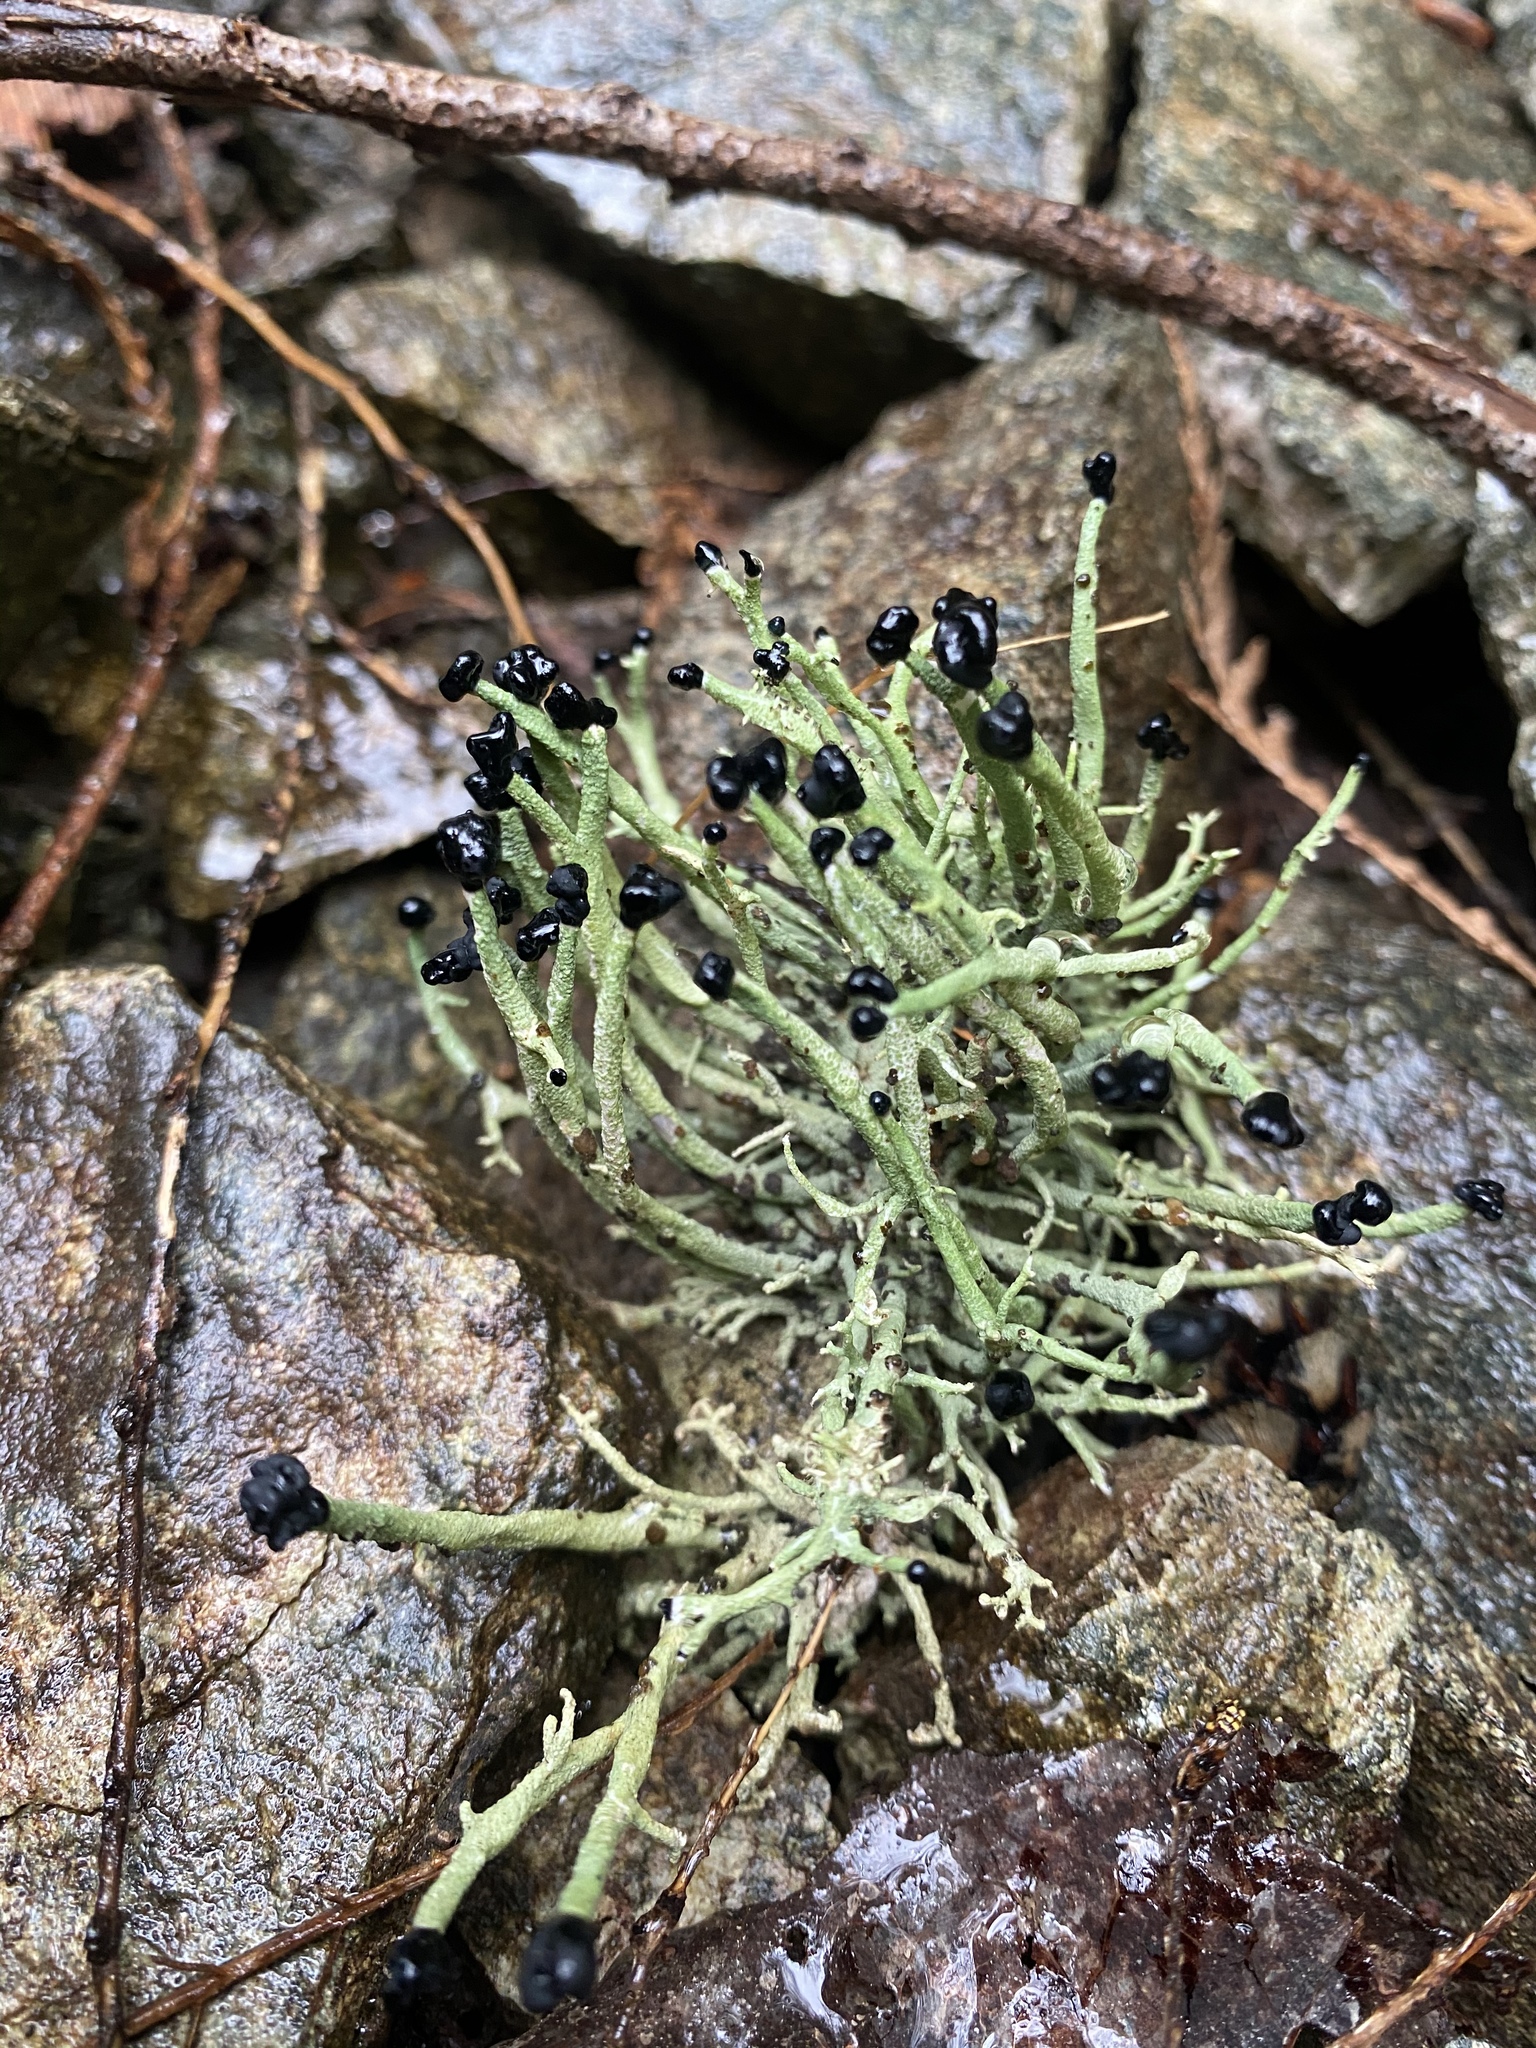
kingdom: Fungi
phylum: Ascomycota
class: Lecanoromycetes
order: Lecanorales
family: Cladoniaceae
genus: Pilophorus
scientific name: Pilophorus acicularis
